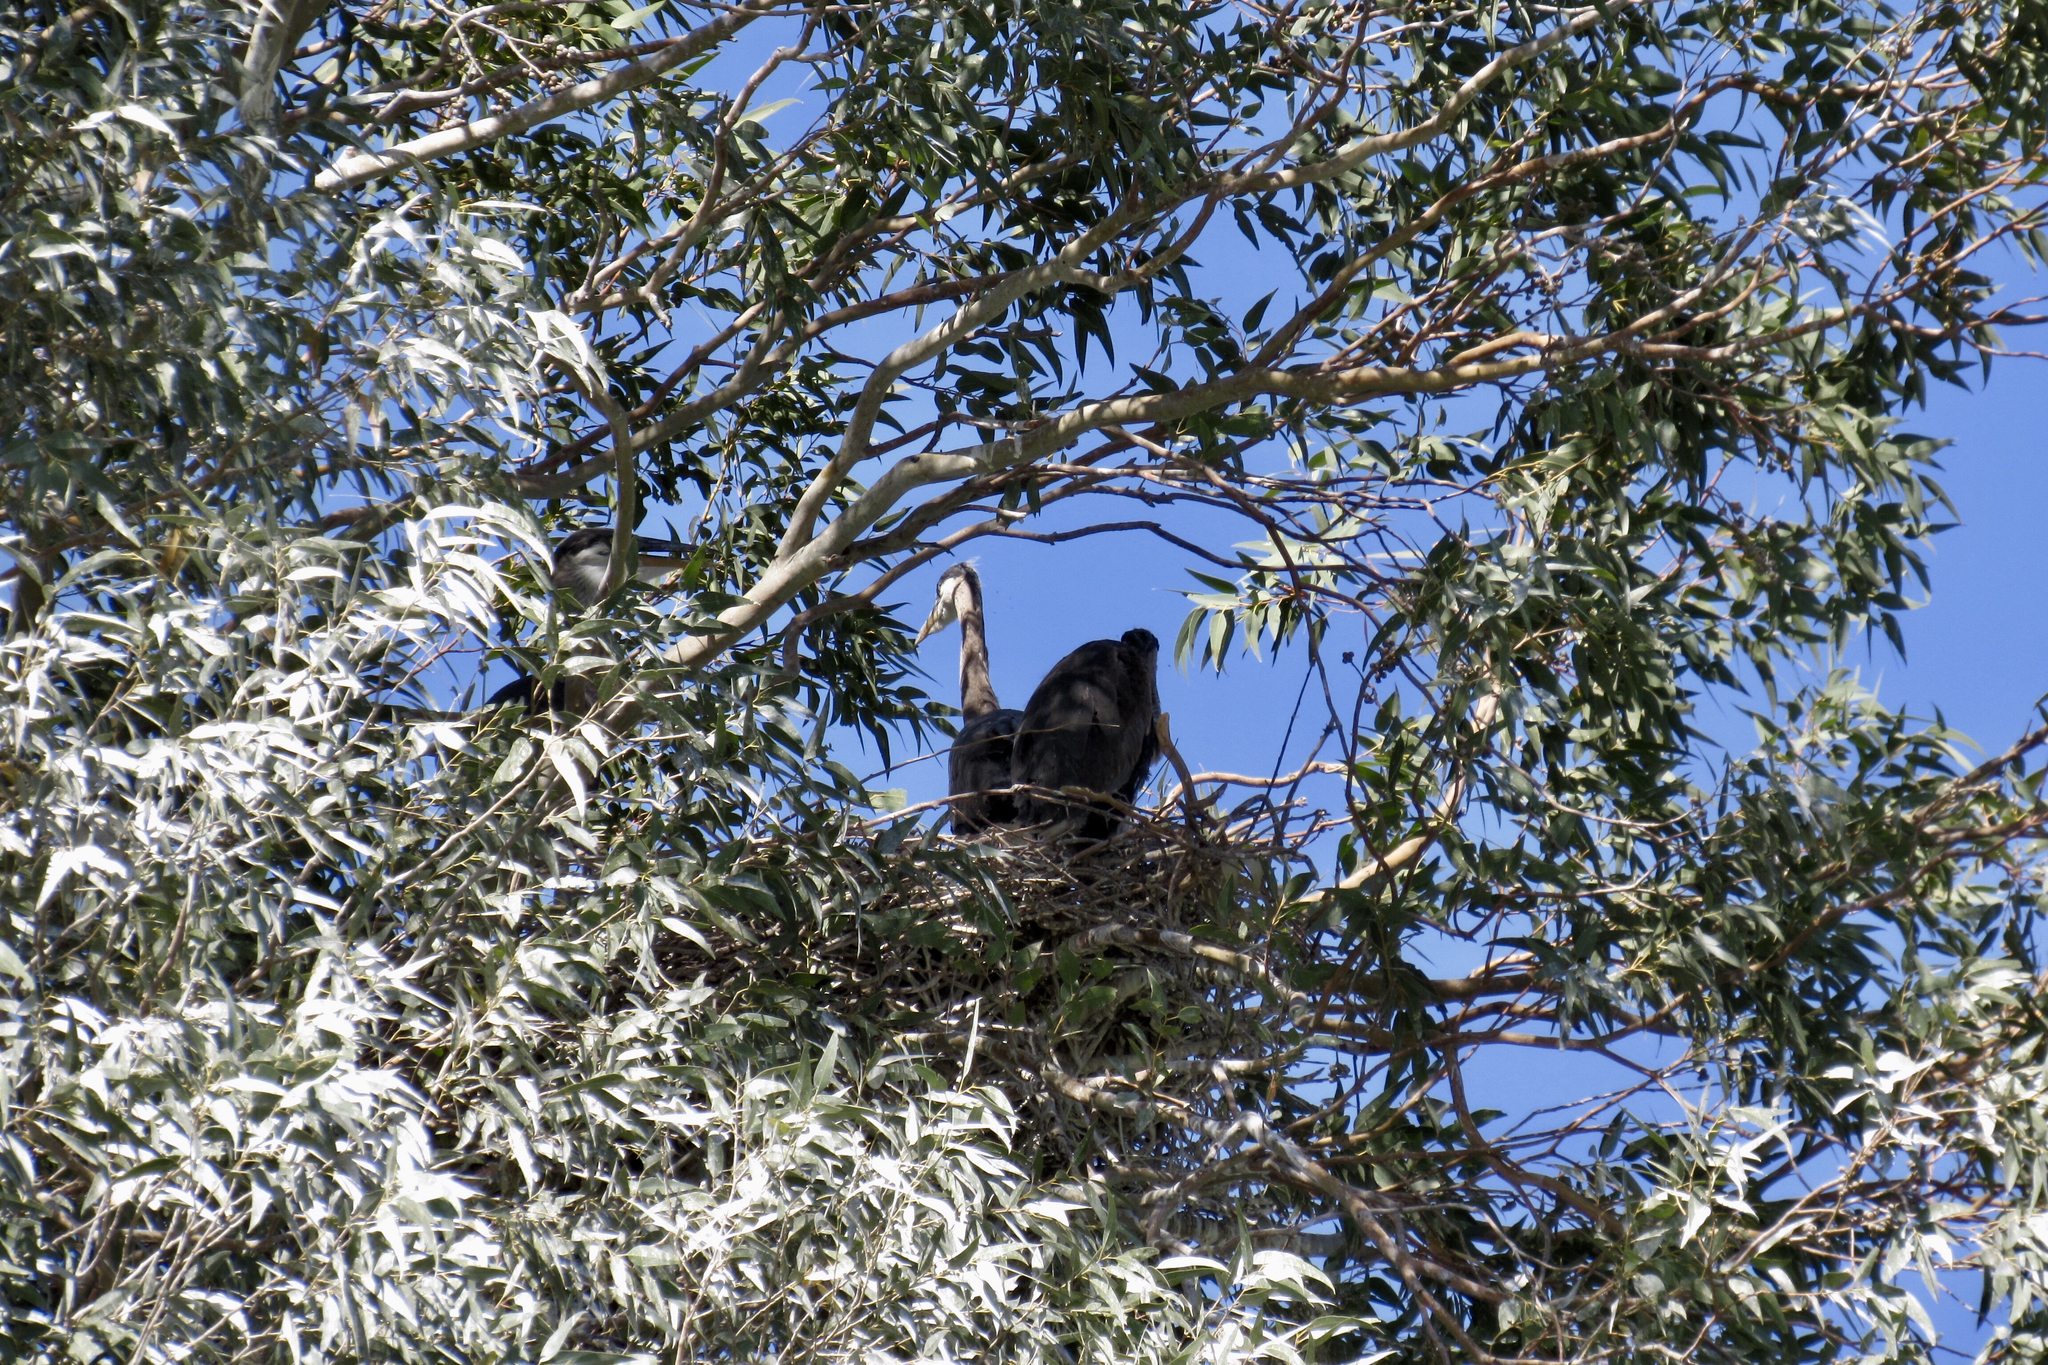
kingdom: Animalia
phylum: Chordata
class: Aves
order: Pelecaniformes
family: Ardeidae
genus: Ardea
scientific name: Ardea herodias
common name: Great blue heron
